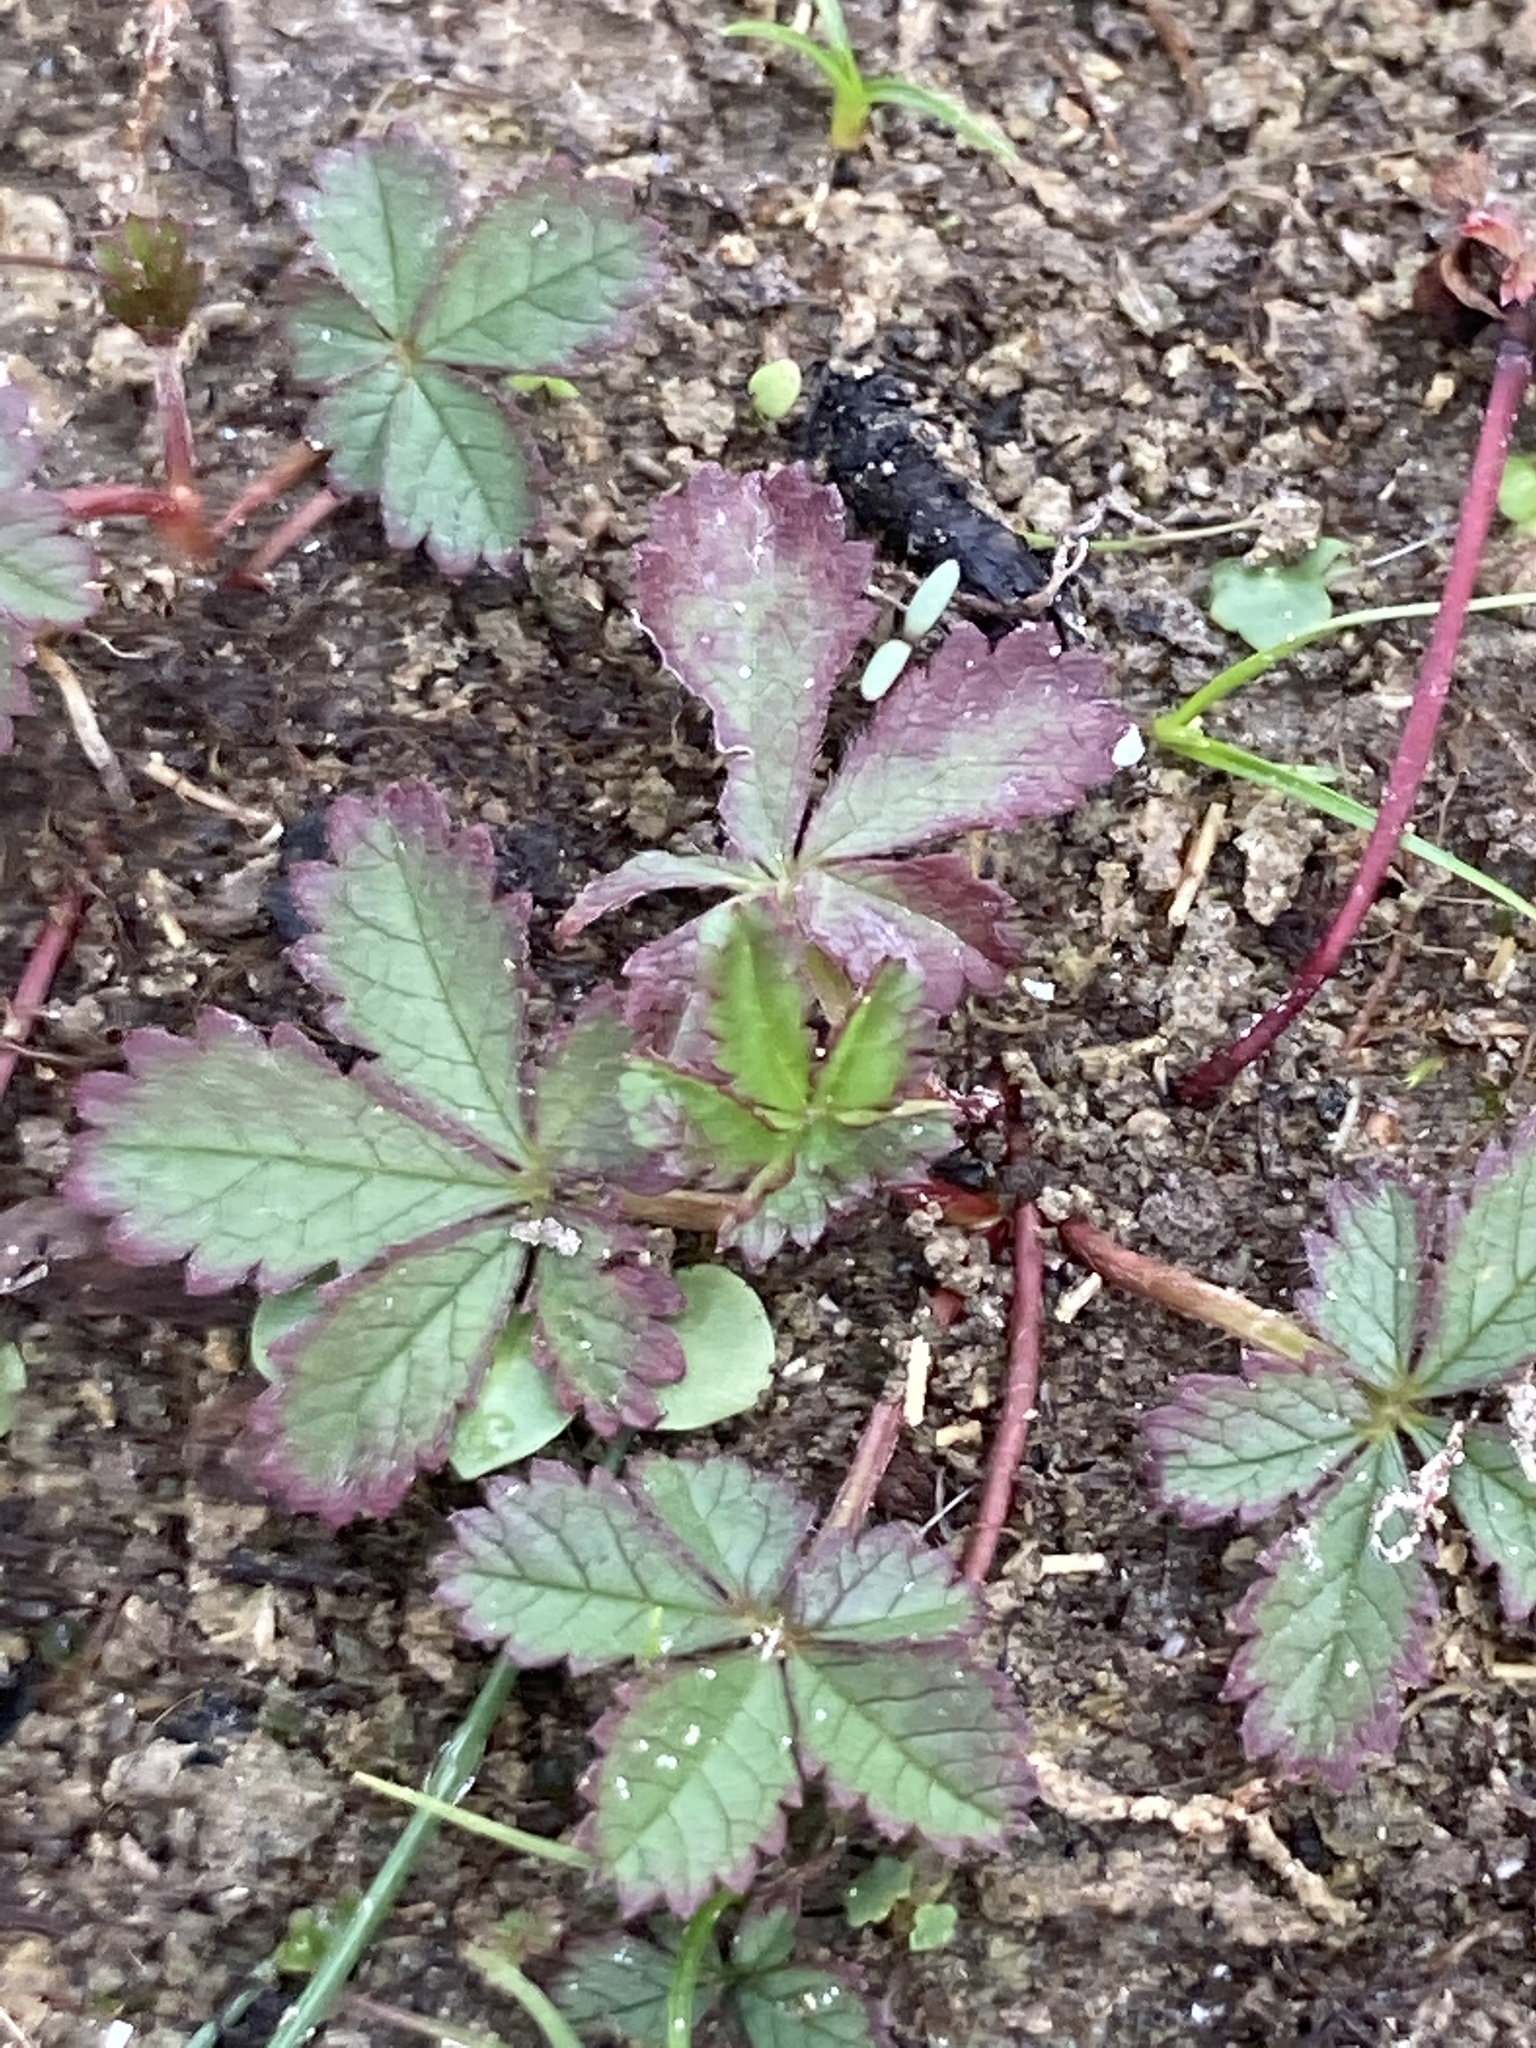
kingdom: Plantae
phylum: Tracheophyta
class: Magnoliopsida
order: Rosales
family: Rosaceae
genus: Potentilla
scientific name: Potentilla reptans
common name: Creeping cinquefoil
